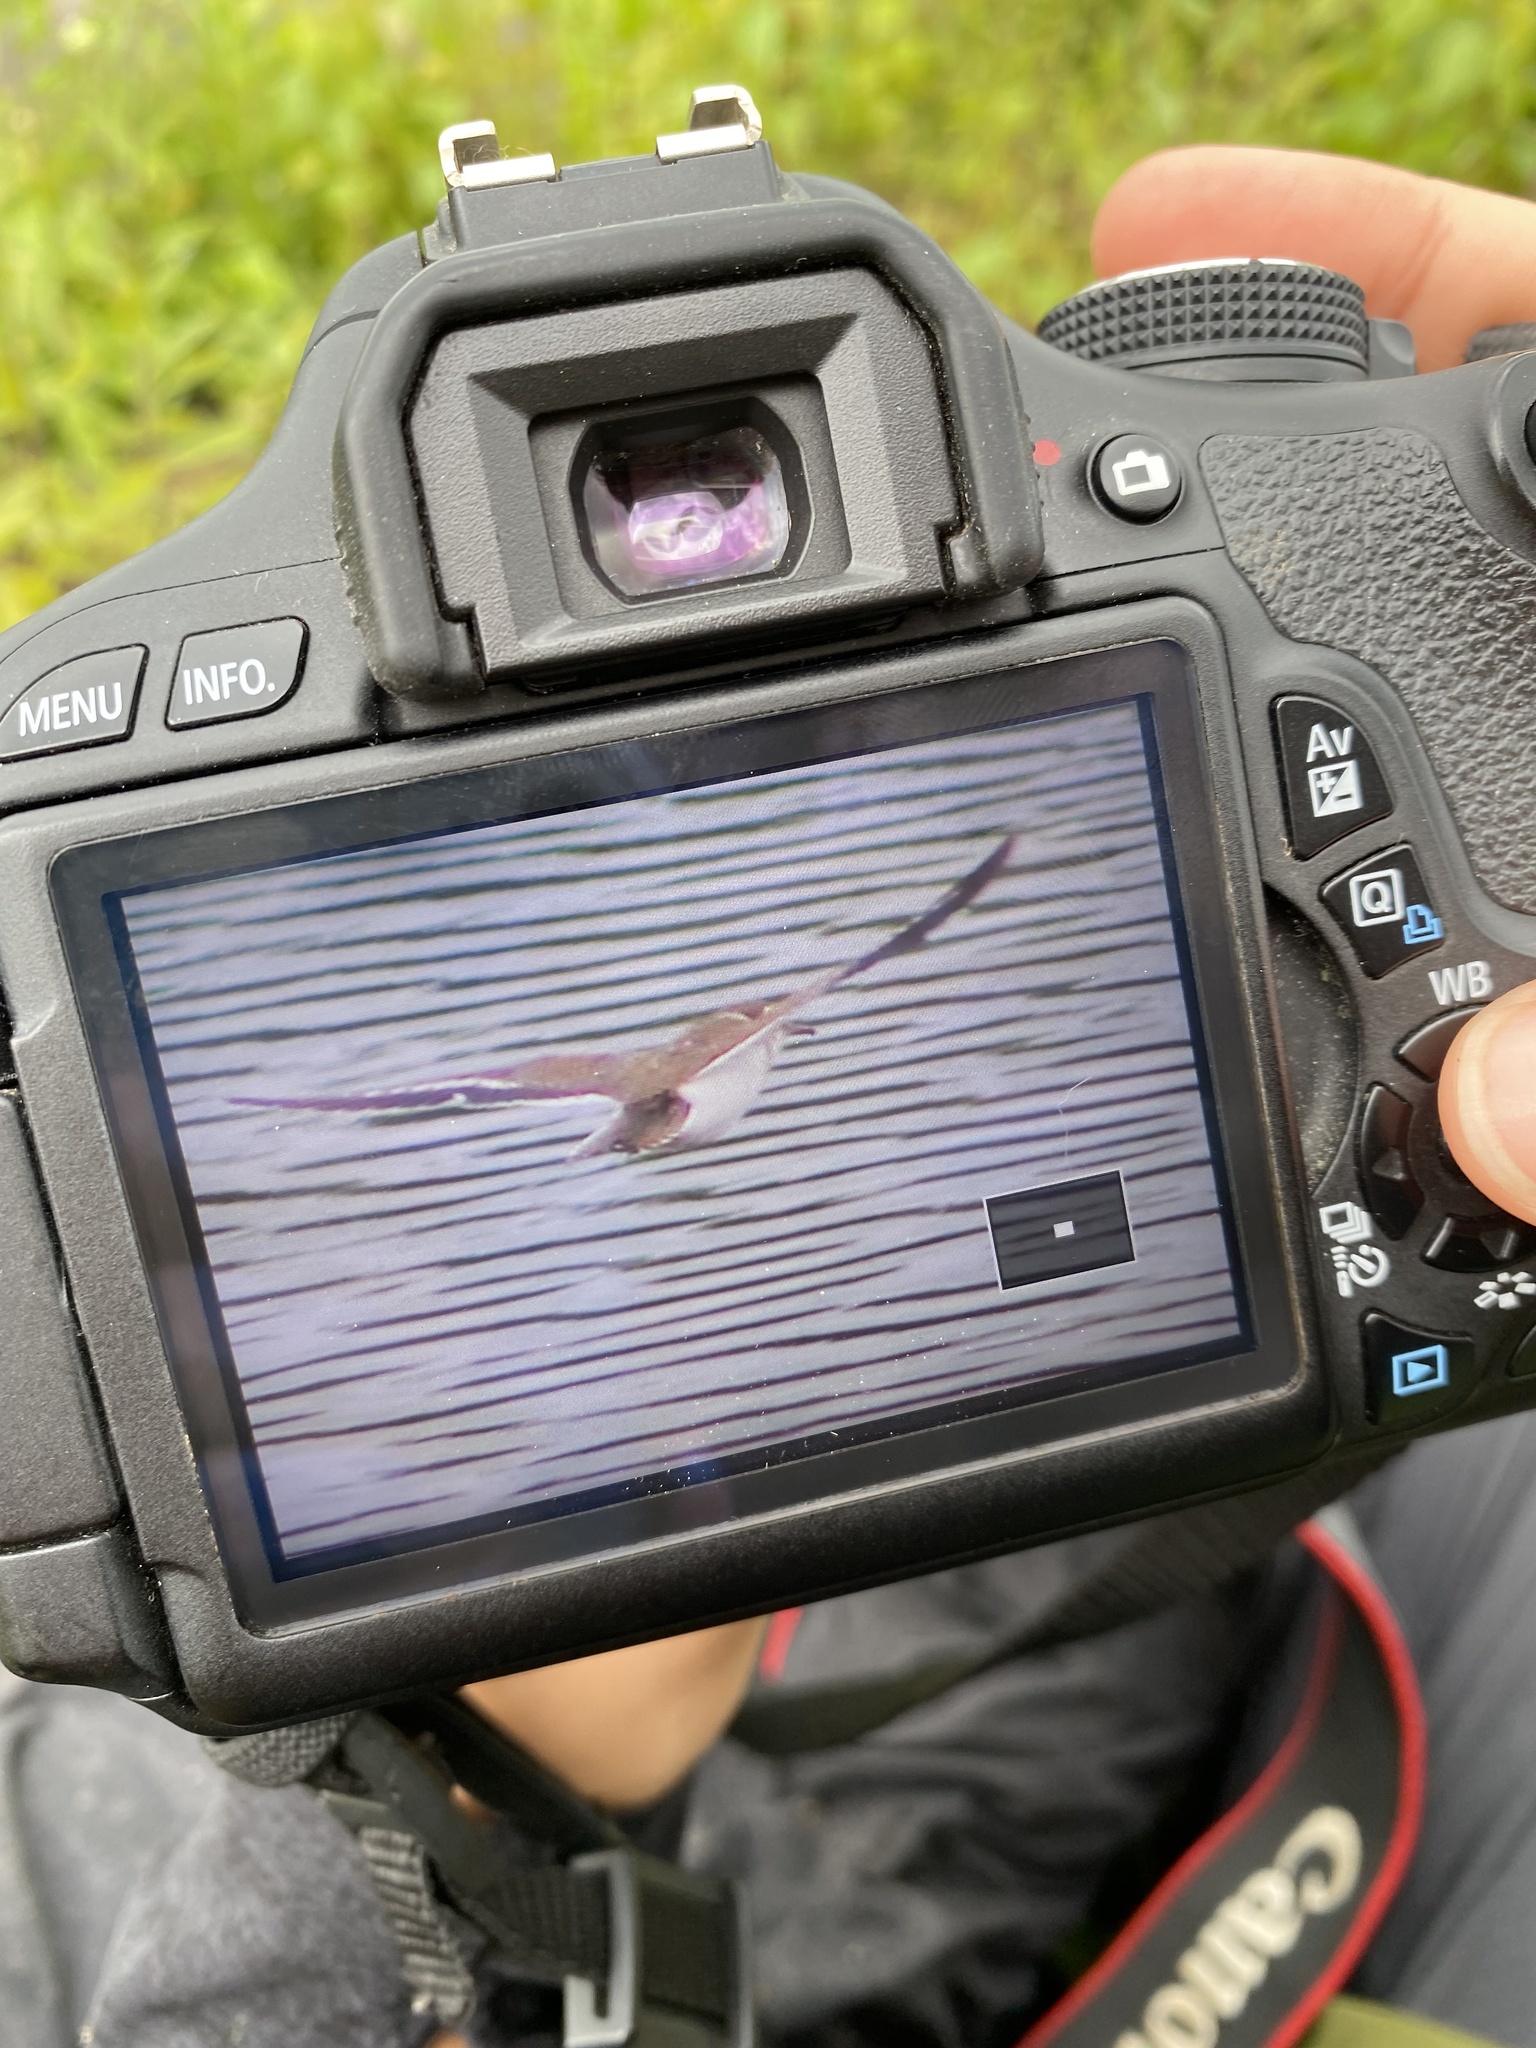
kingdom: Animalia
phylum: Chordata
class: Aves
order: Charadriiformes
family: Scolopacidae
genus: Actitis
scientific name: Actitis macularius
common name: Spotted sandpiper
